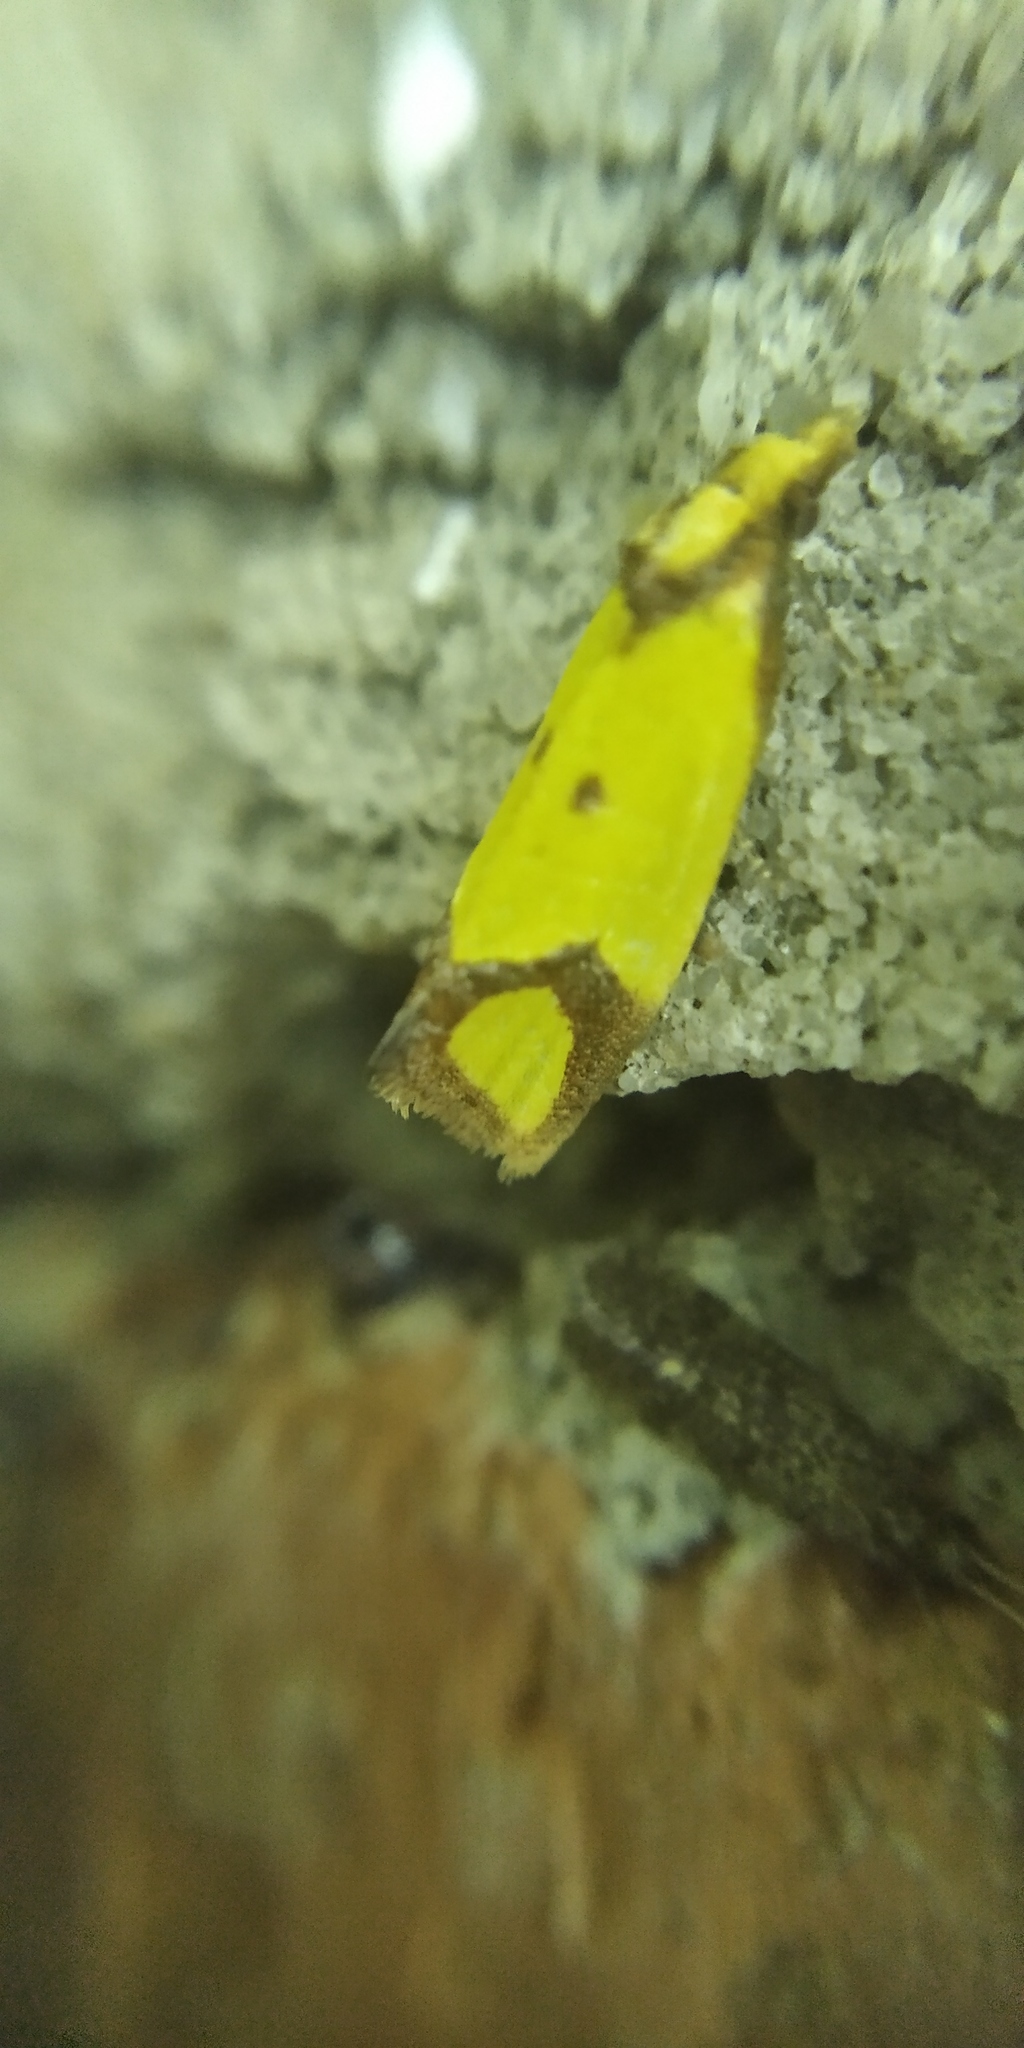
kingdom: Animalia
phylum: Arthropoda
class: Insecta
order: Lepidoptera
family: Tortricidae
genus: Agapeta
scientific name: Agapeta zoegana
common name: Sulfur knapweed root moth
